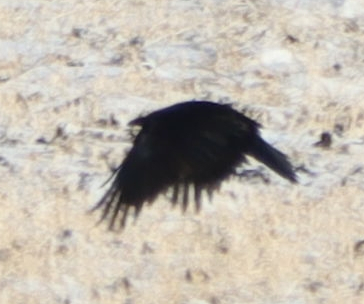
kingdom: Animalia
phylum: Chordata
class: Aves
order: Passeriformes
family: Corvidae
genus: Corvus
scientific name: Corvus corax
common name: Common raven
